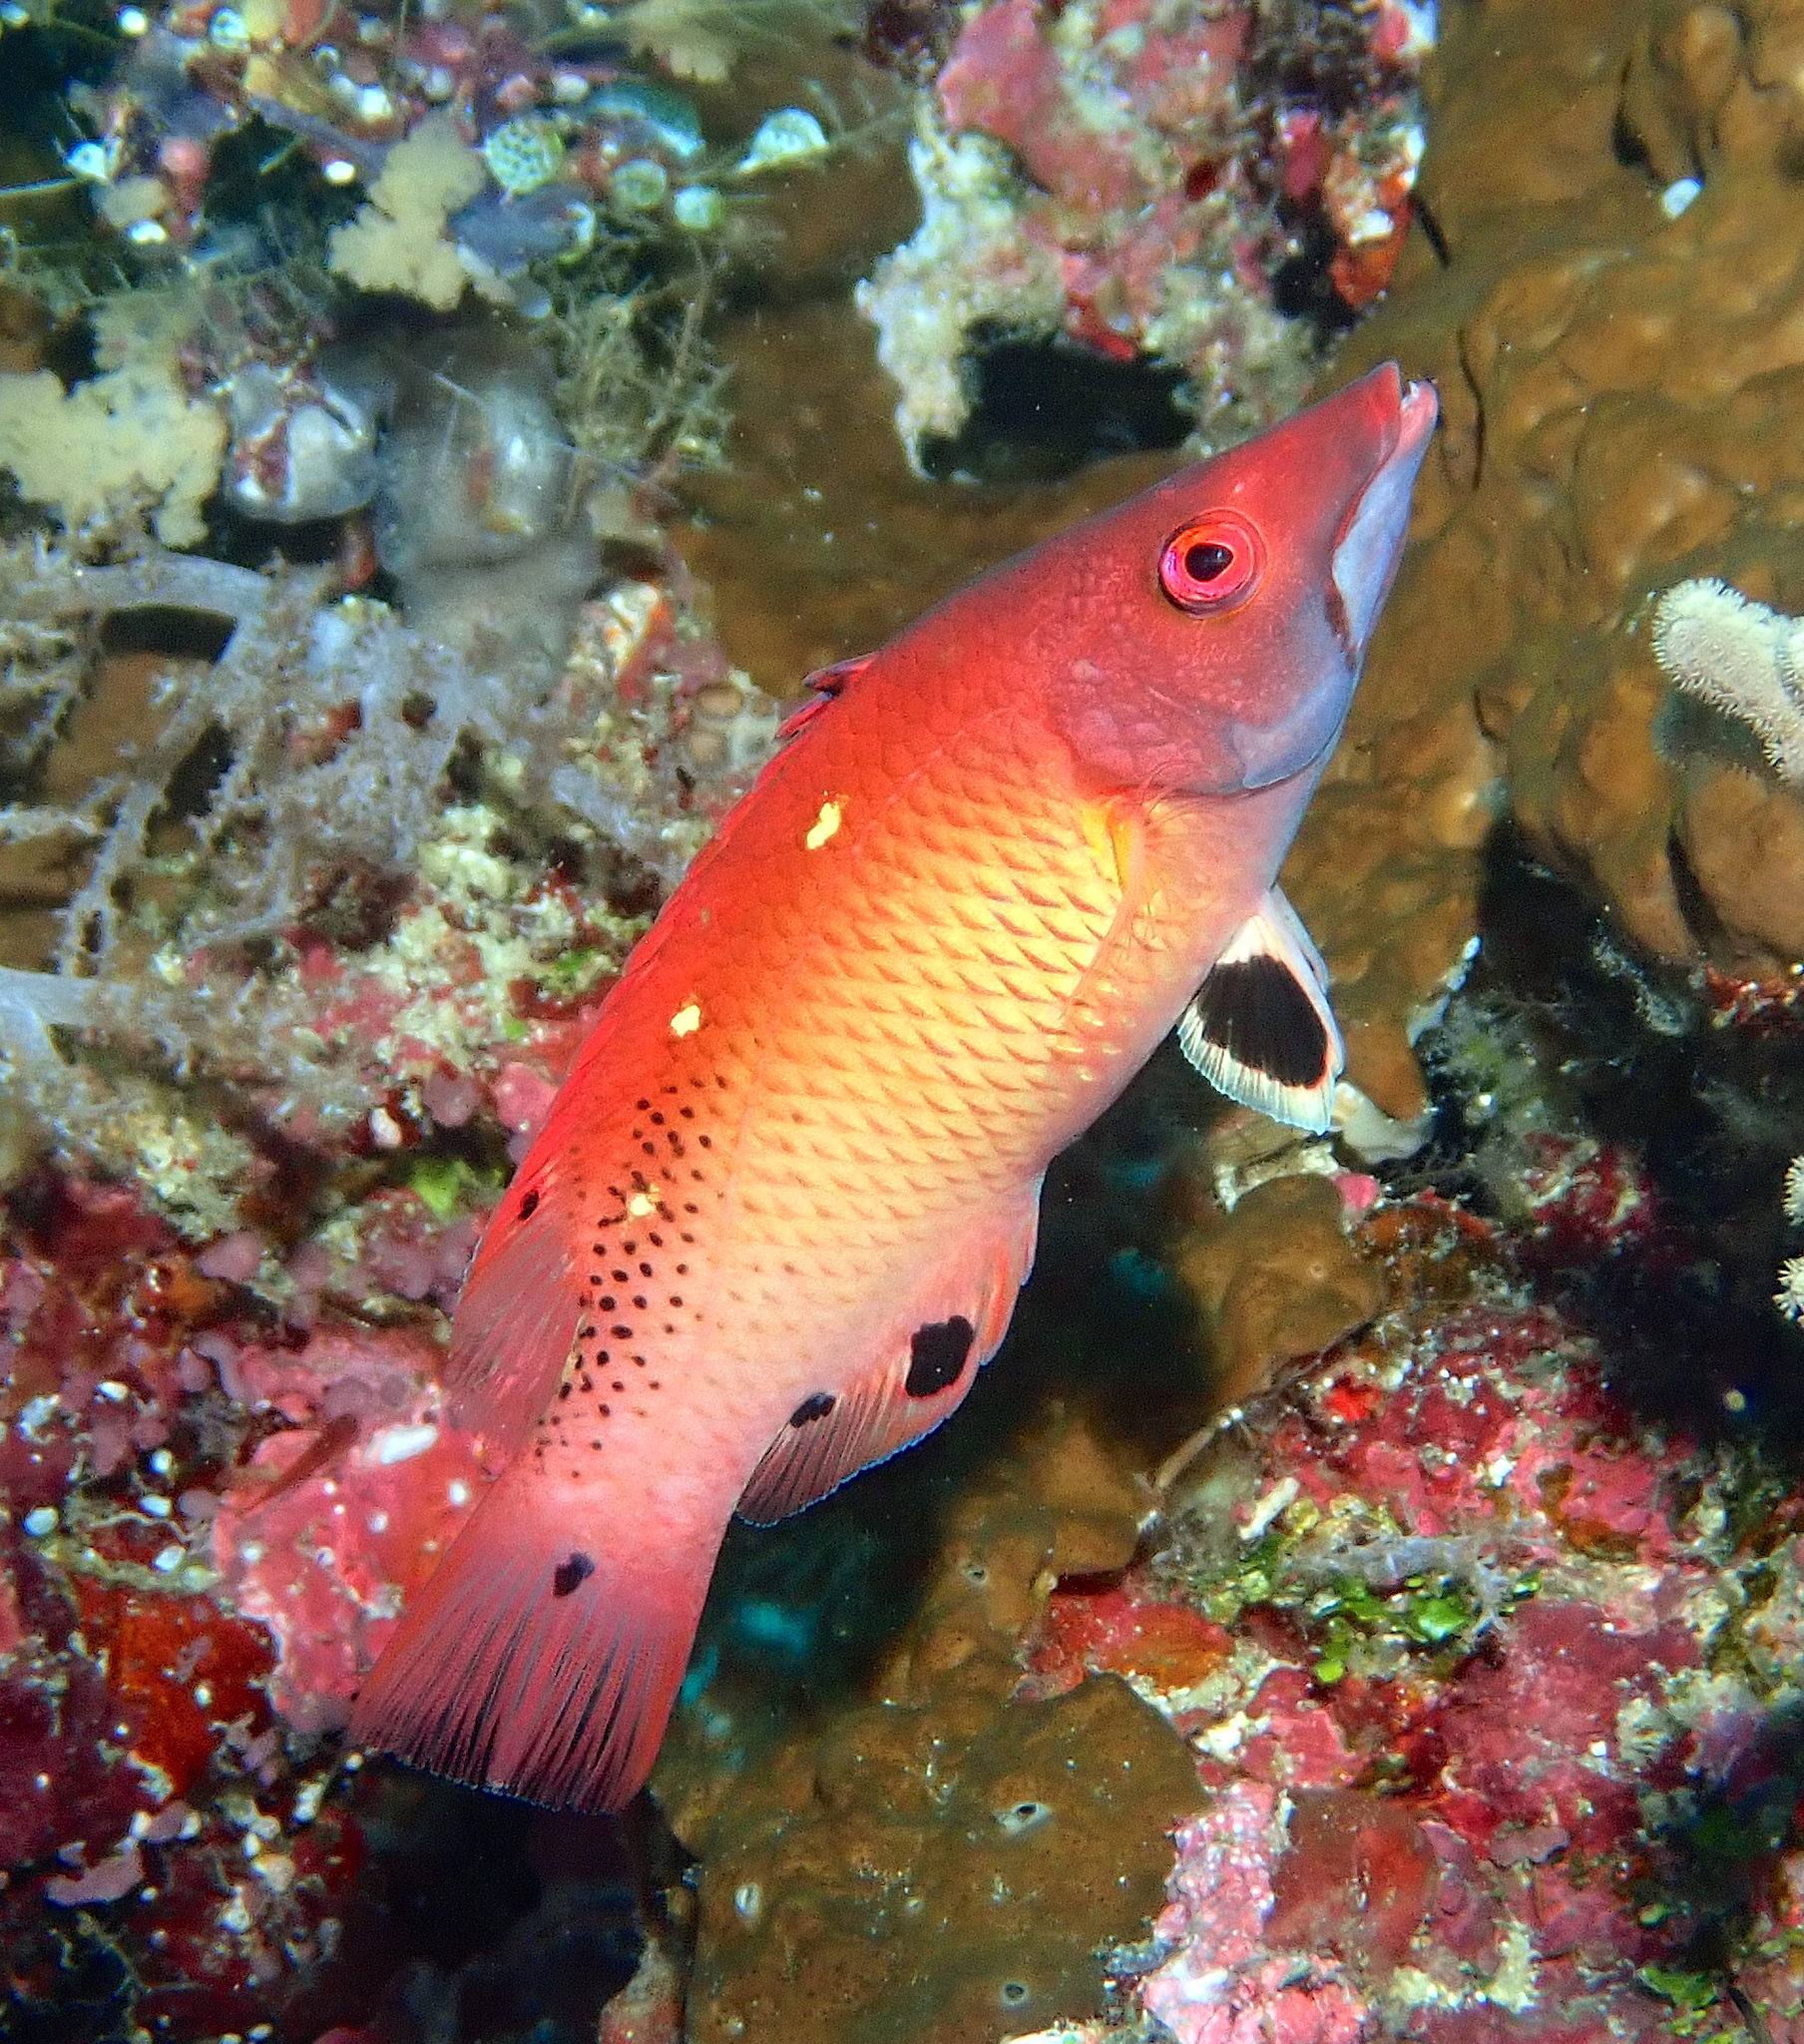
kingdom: Animalia
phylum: Chordata
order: Perciformes
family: Labridae
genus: Bodianus
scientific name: Bodianus dictynna
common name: Diana's hogfish
